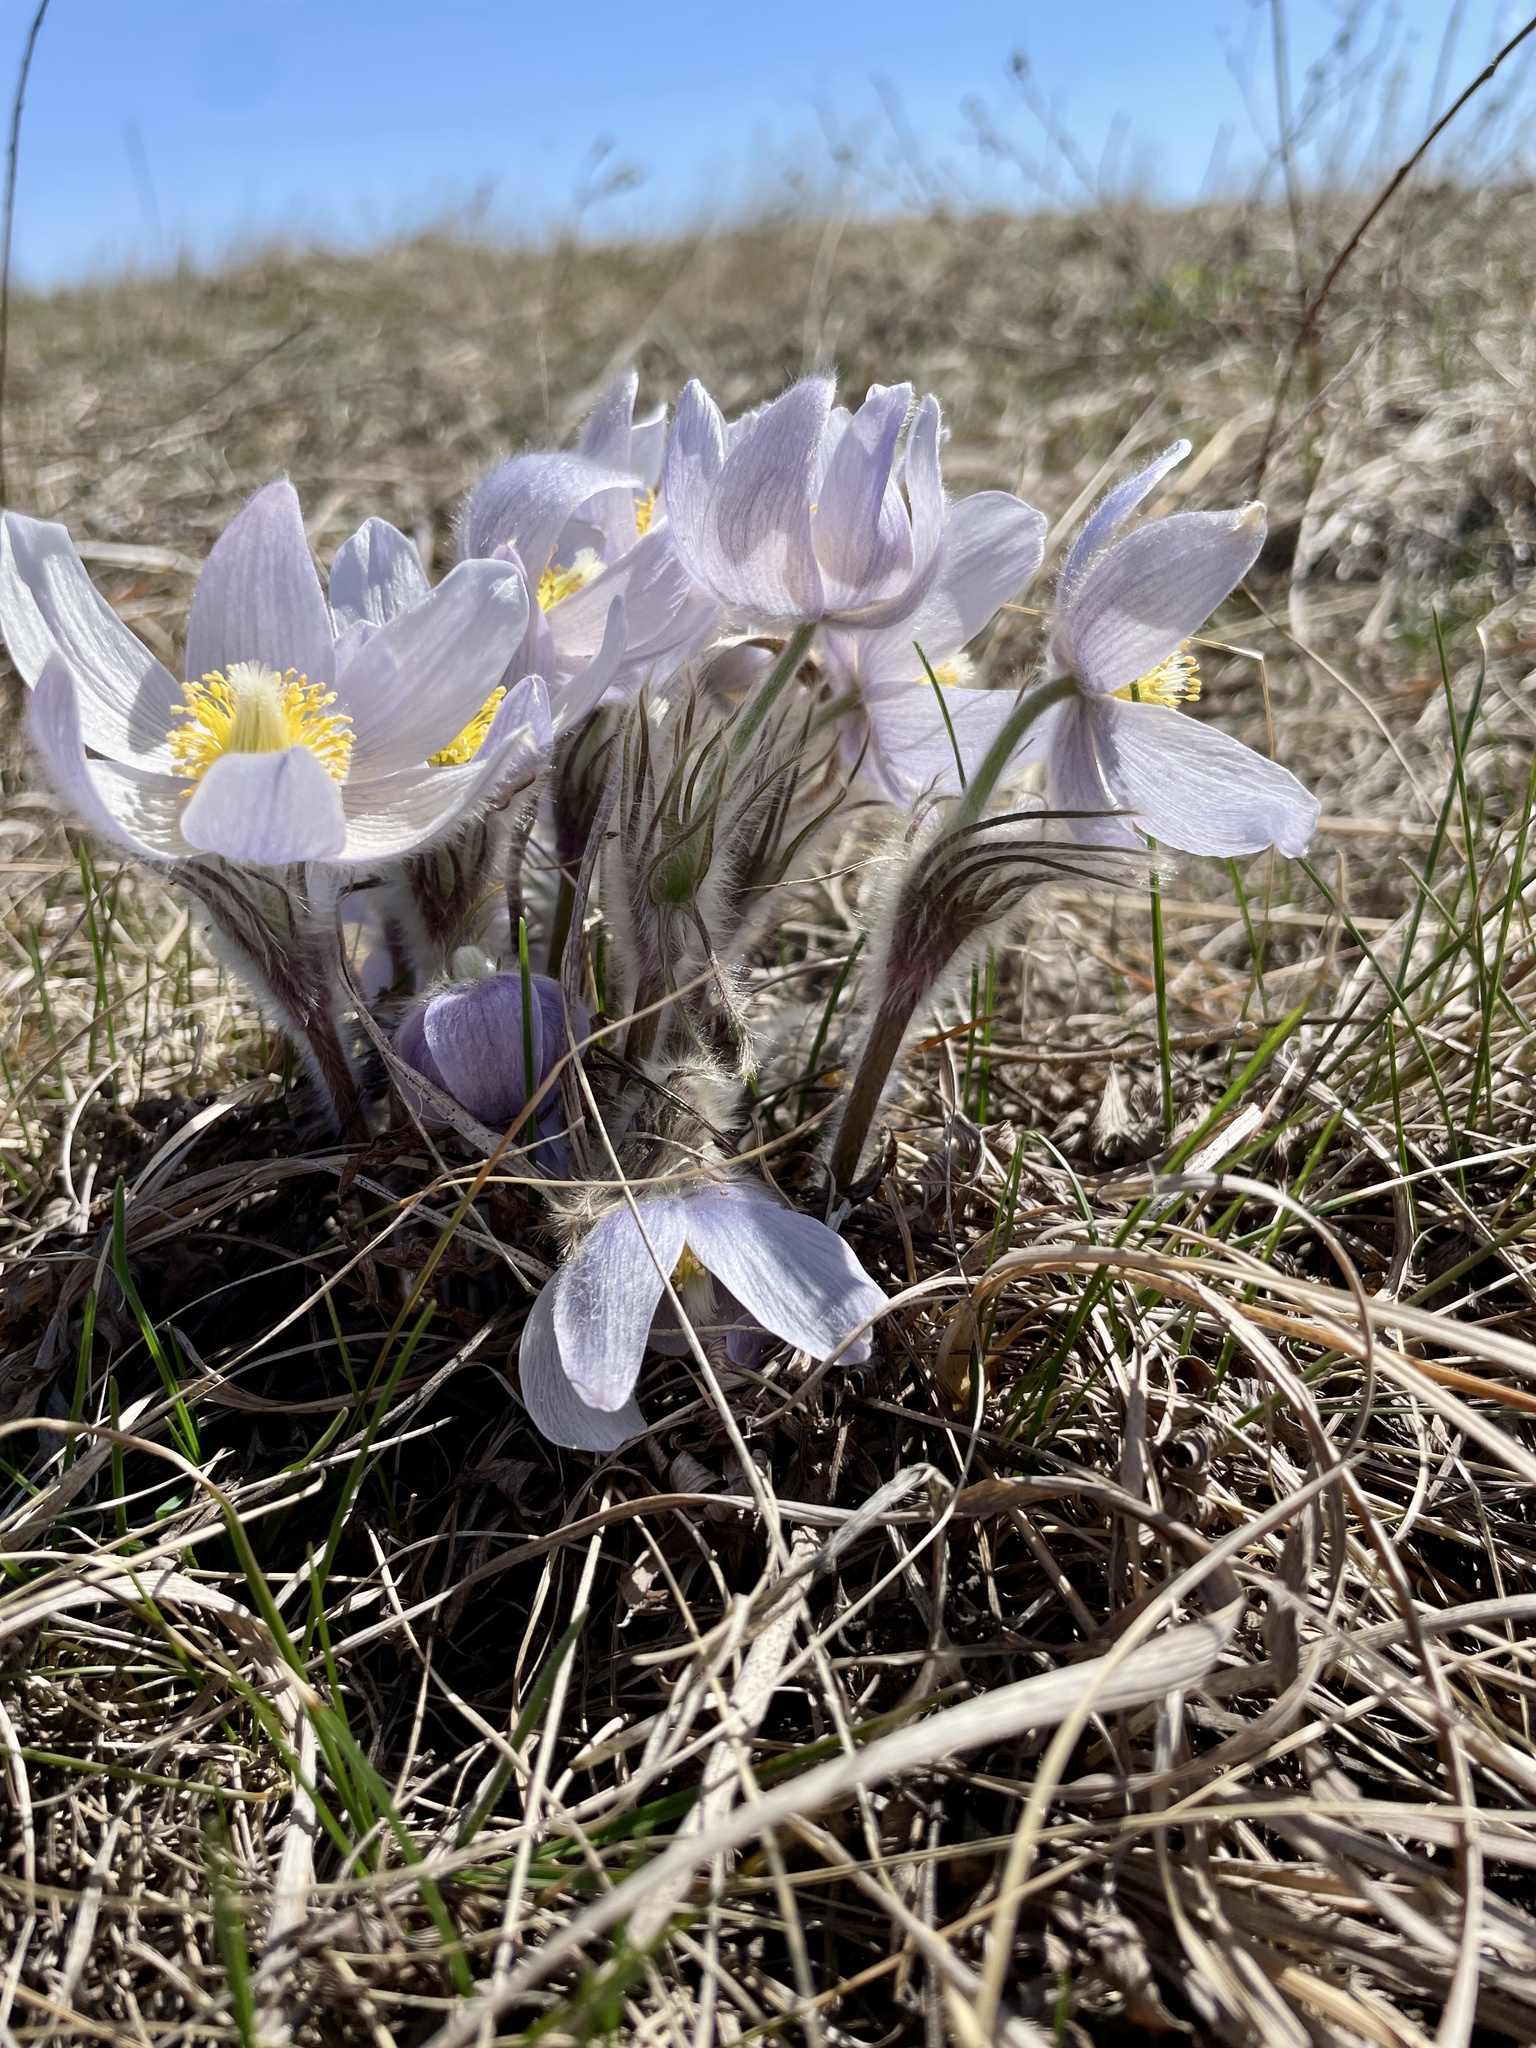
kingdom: Plantae
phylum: Tracheophyta
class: Magnoliopsida
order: Ranunculales
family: Ranunculaceae
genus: Pulsatilla
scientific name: Pulsatilla nuttalliana
